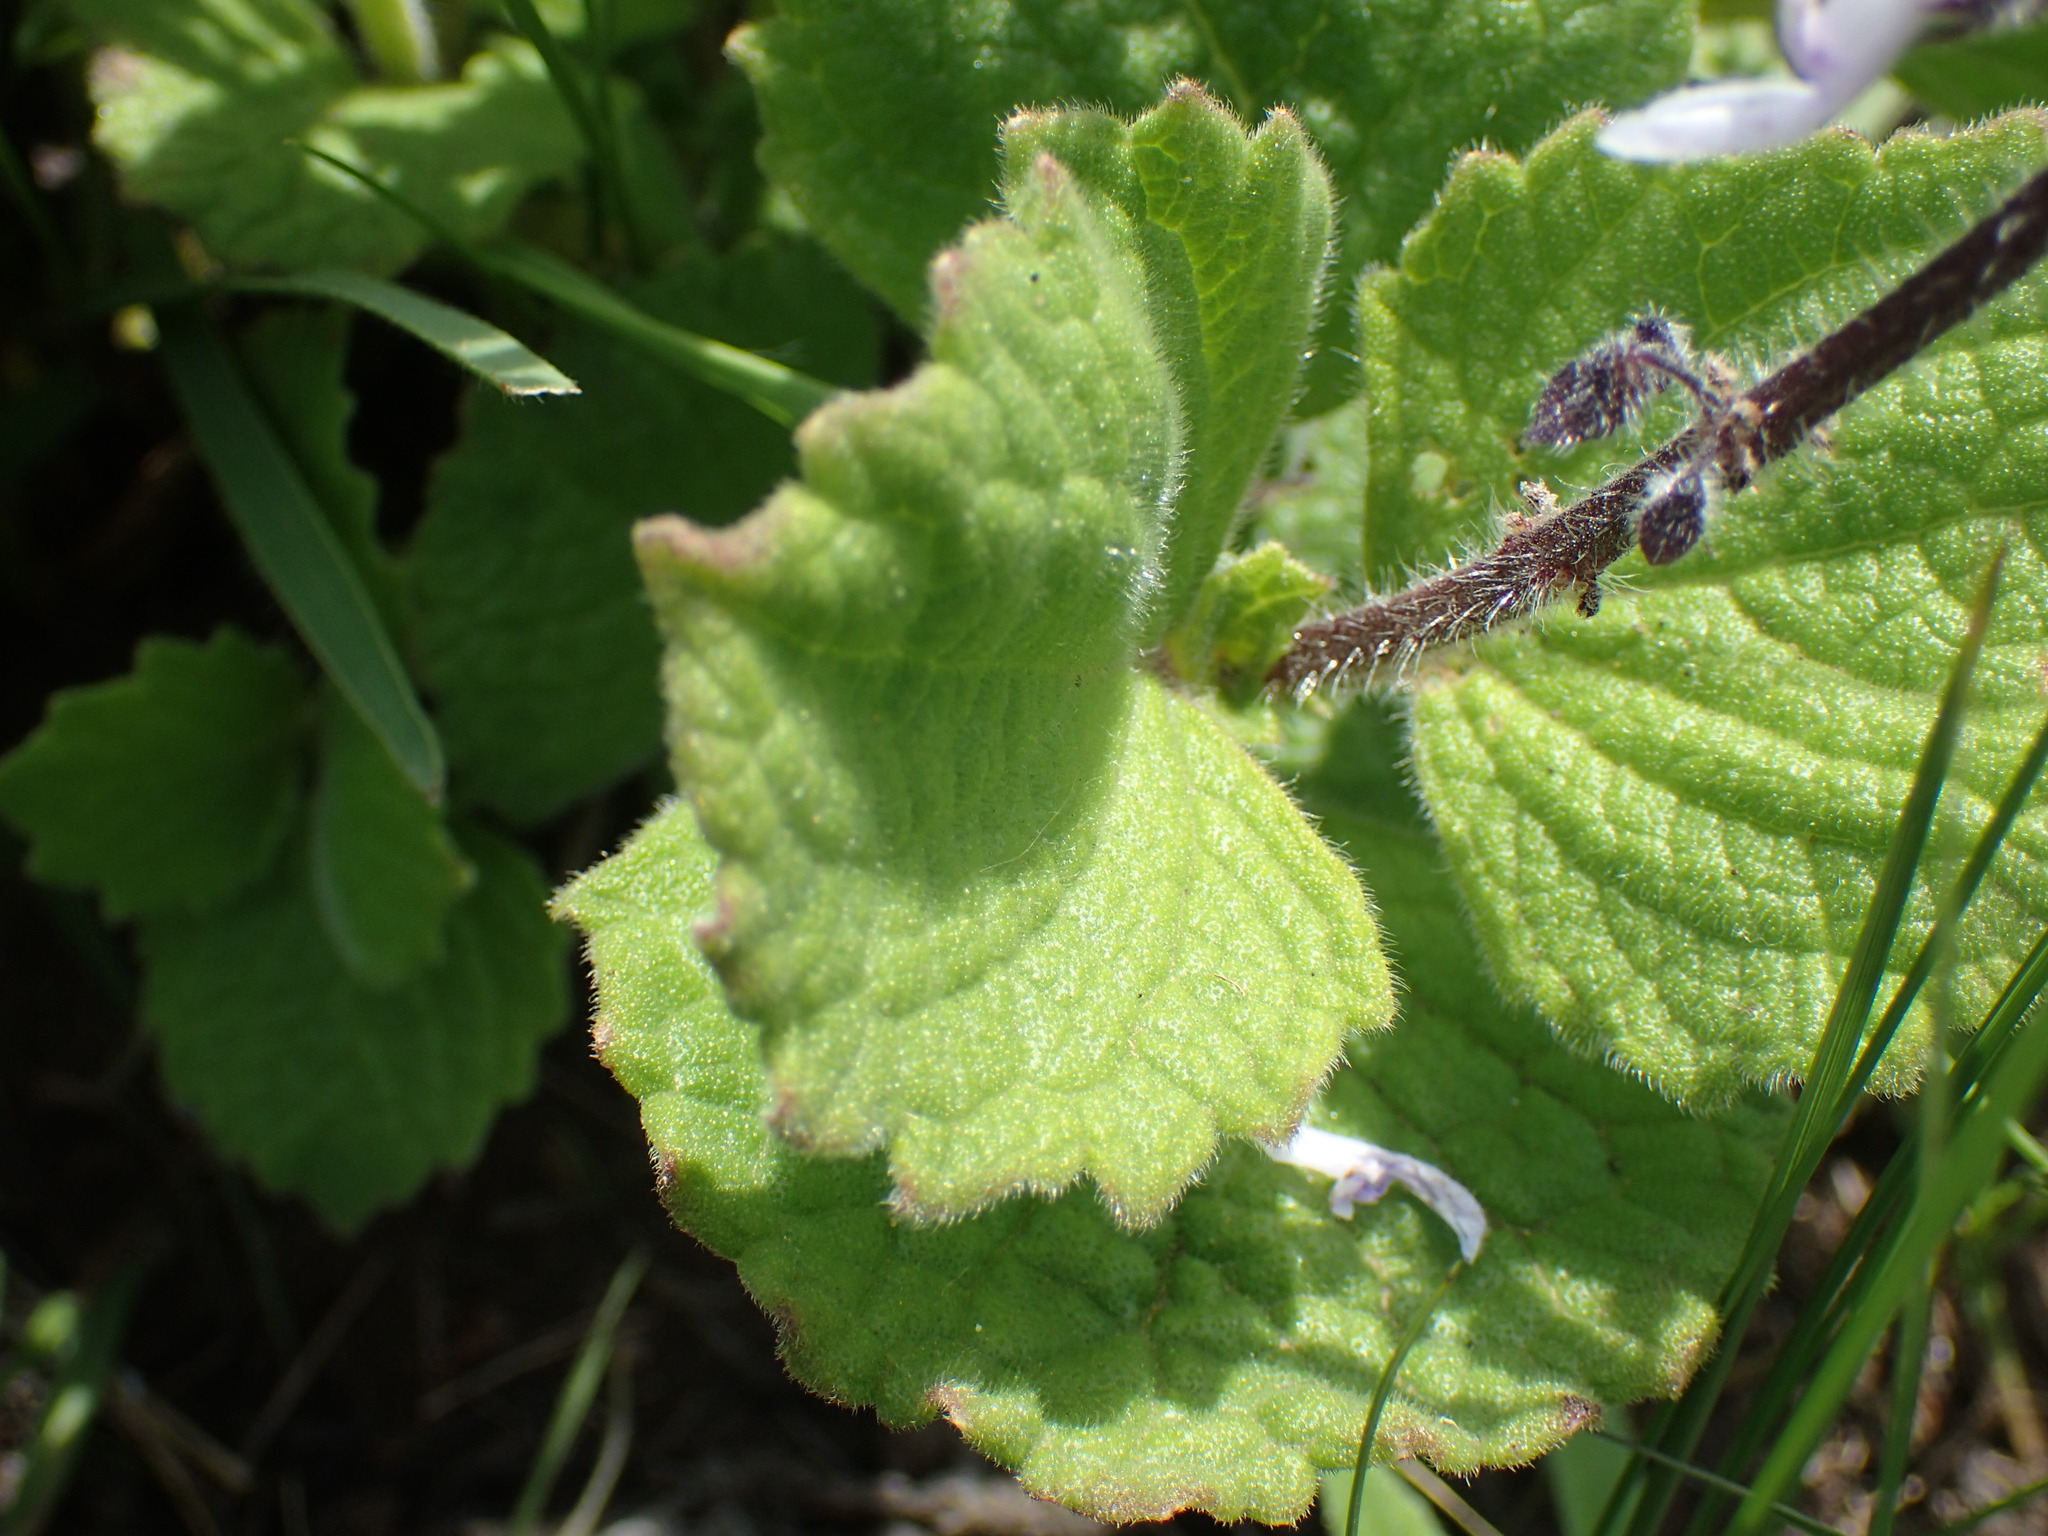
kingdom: Plantae
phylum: Tracheophyta
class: Magnoliopsida
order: Lamiales
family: Lamiaceae
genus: Coleus
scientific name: Coleus hadiensis
